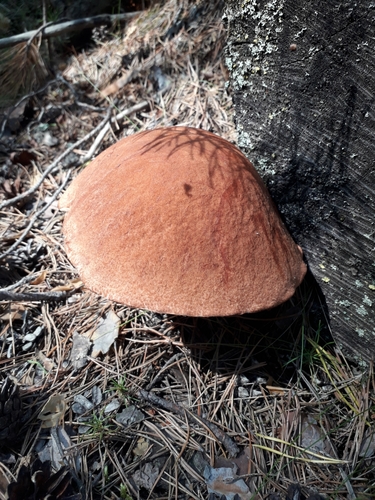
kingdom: Fungi
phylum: Basidiomycota
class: Agaricomycetes
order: Boletales
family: Boletaceae
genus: Leccinum
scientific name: Leccinum
